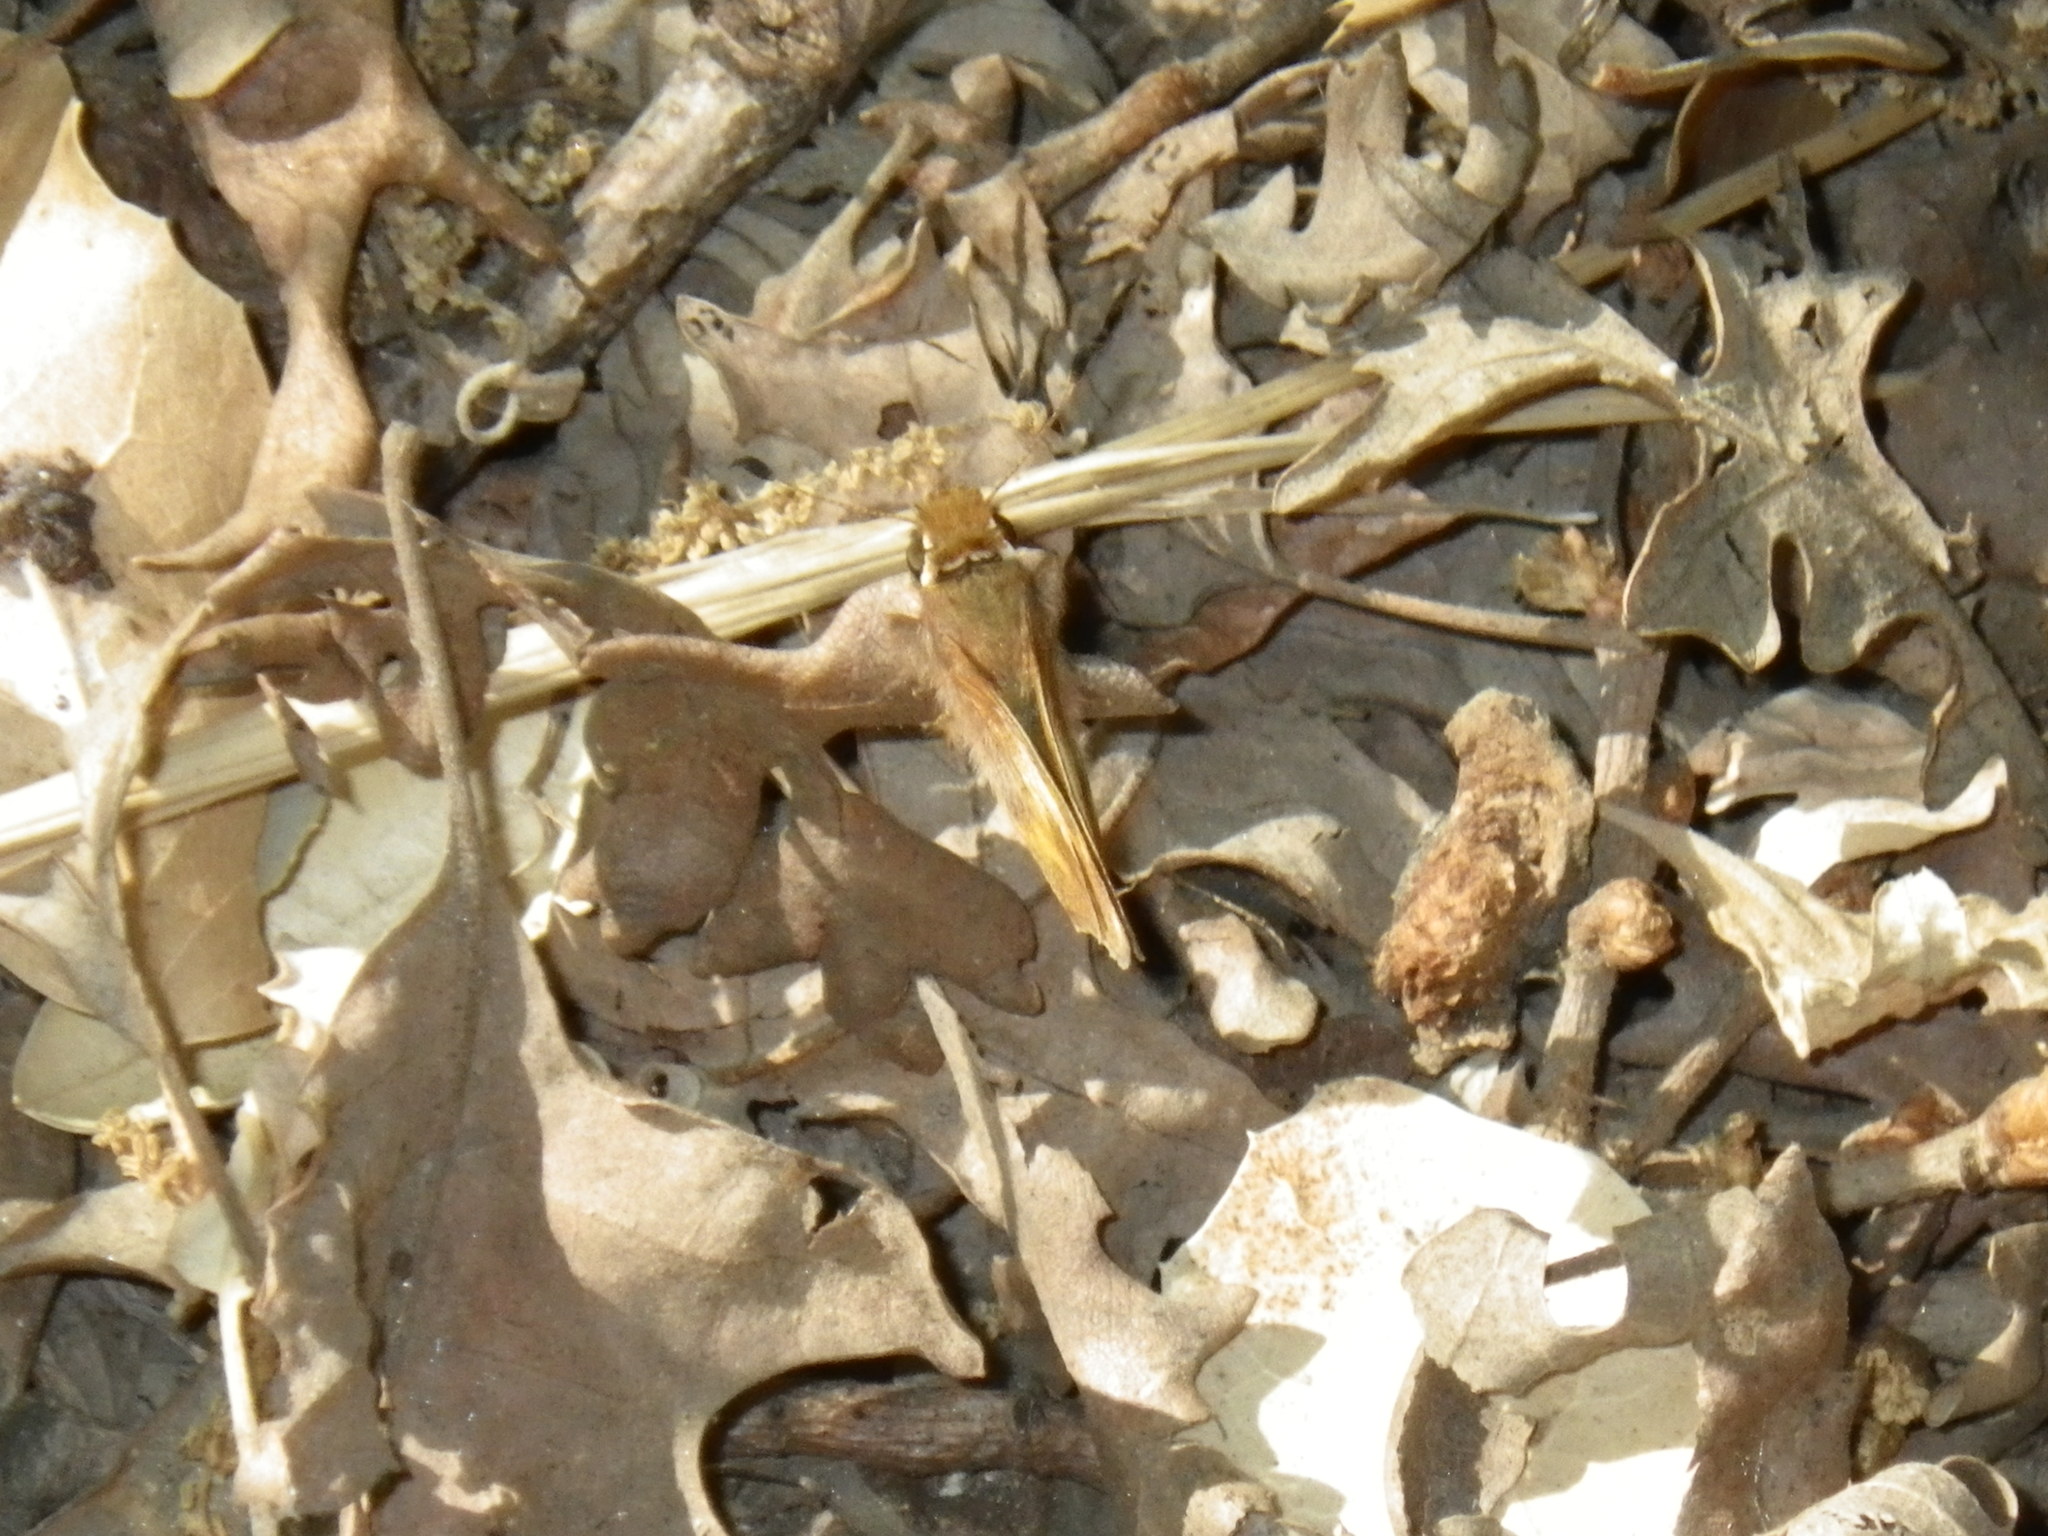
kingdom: Animalia
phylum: Arthropoda
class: Insecta
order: Lepidoptera
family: Hesperiidae
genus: Lon
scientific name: Lon melane
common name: Umber skipper
